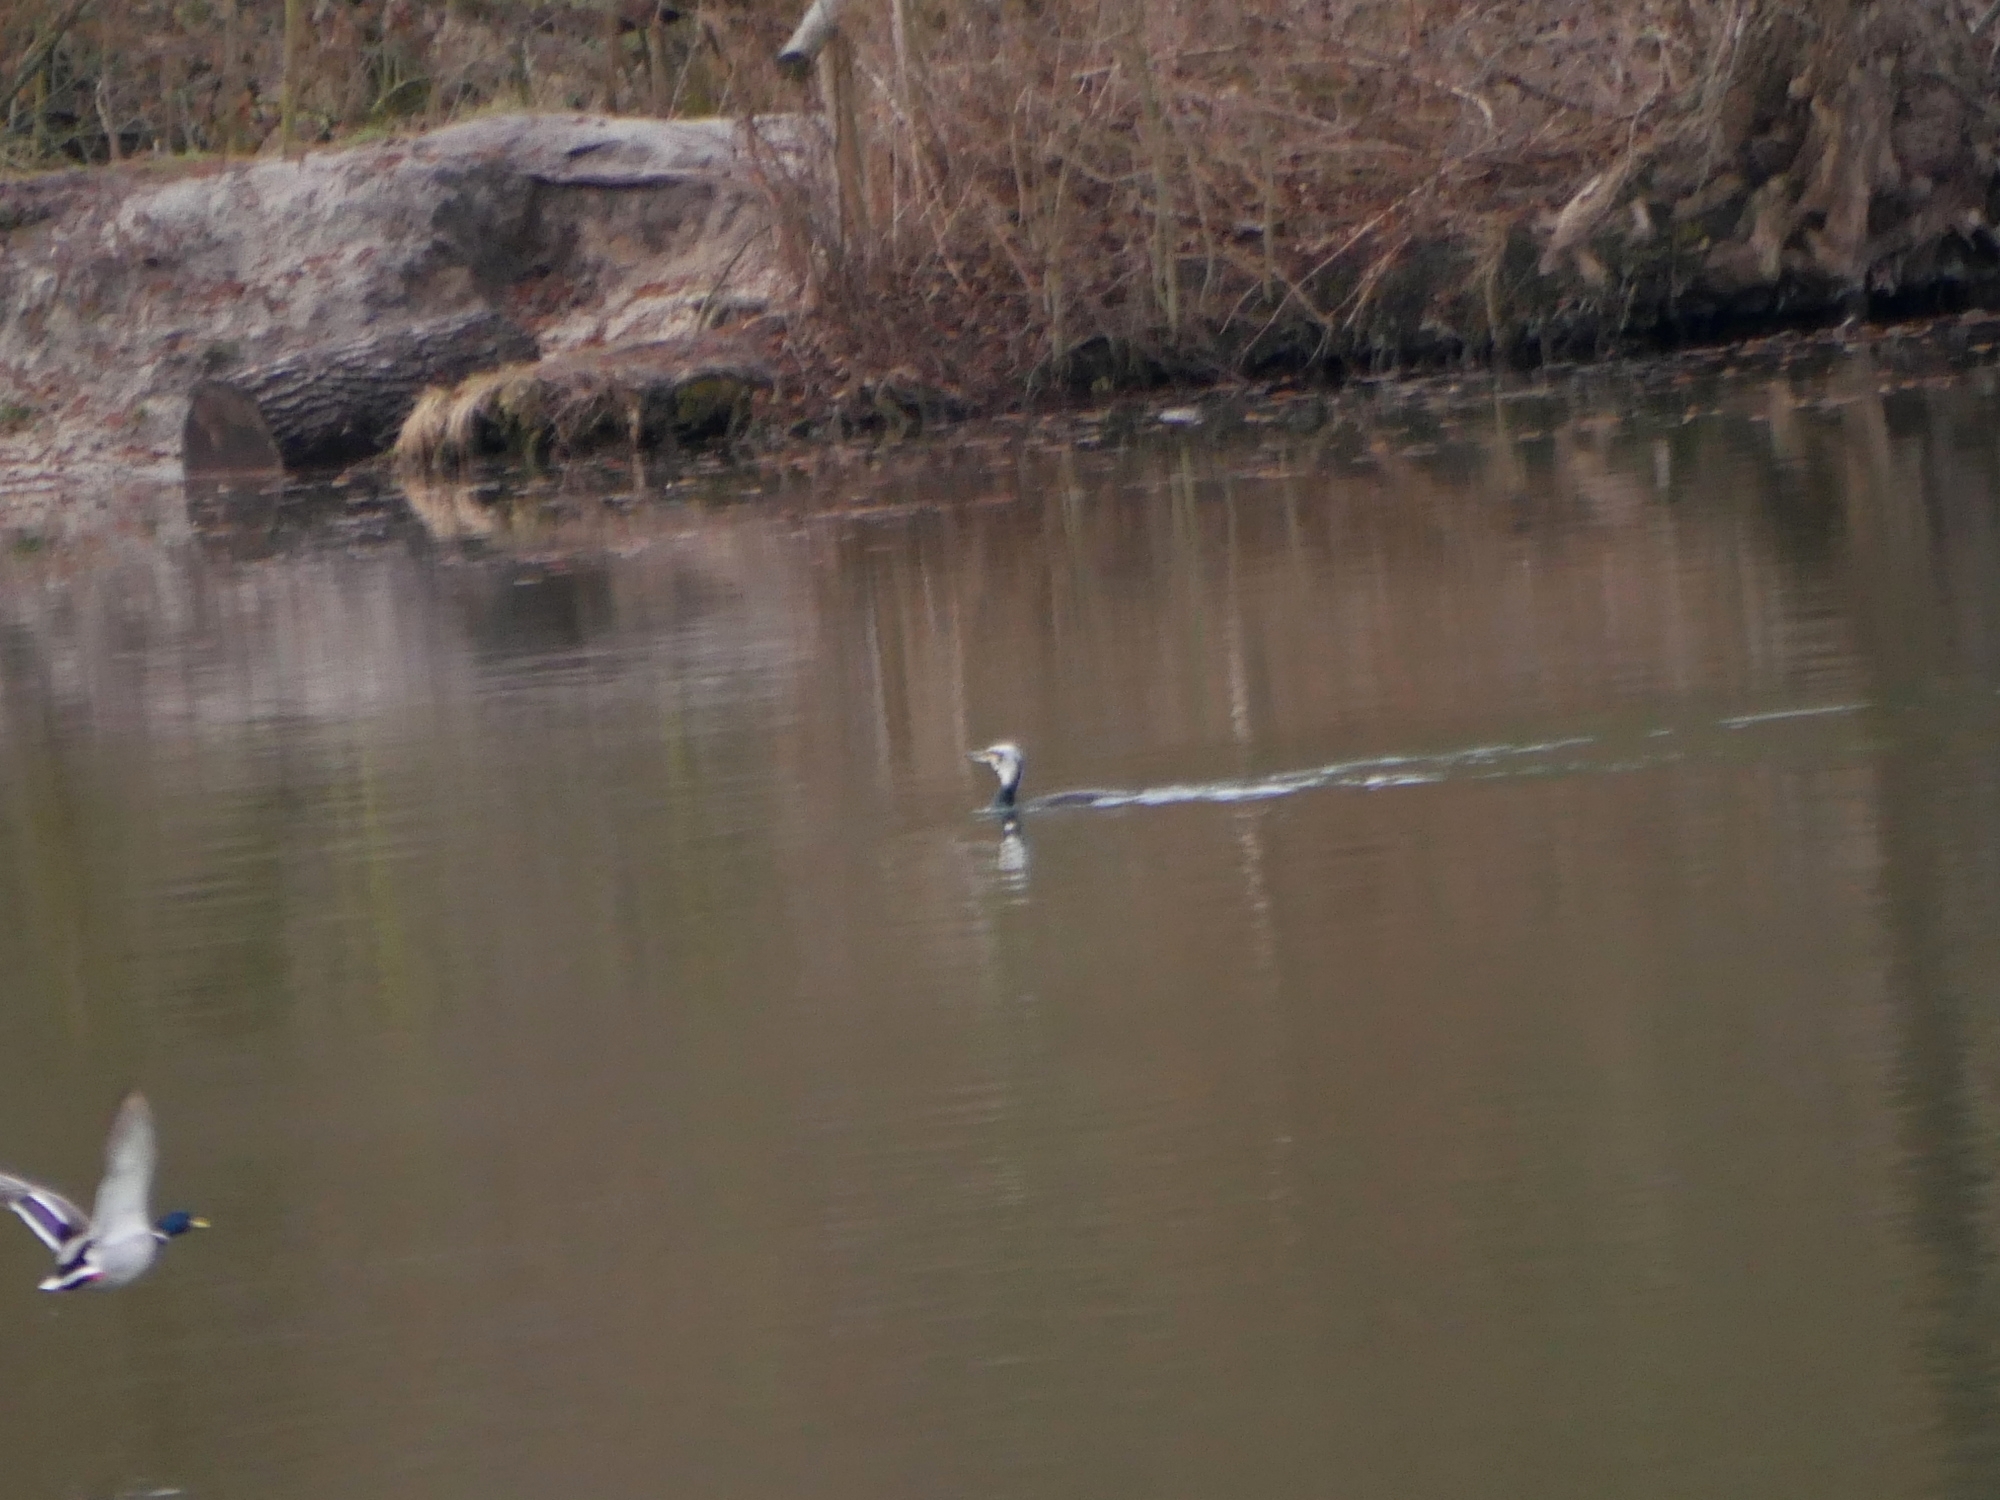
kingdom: Animalia
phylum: Chordata
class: Aves
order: Suliformes
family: Phalacrocoracidae
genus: Phalacrocorax
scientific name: Phalacrocorax carbo
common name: Great cormorant
